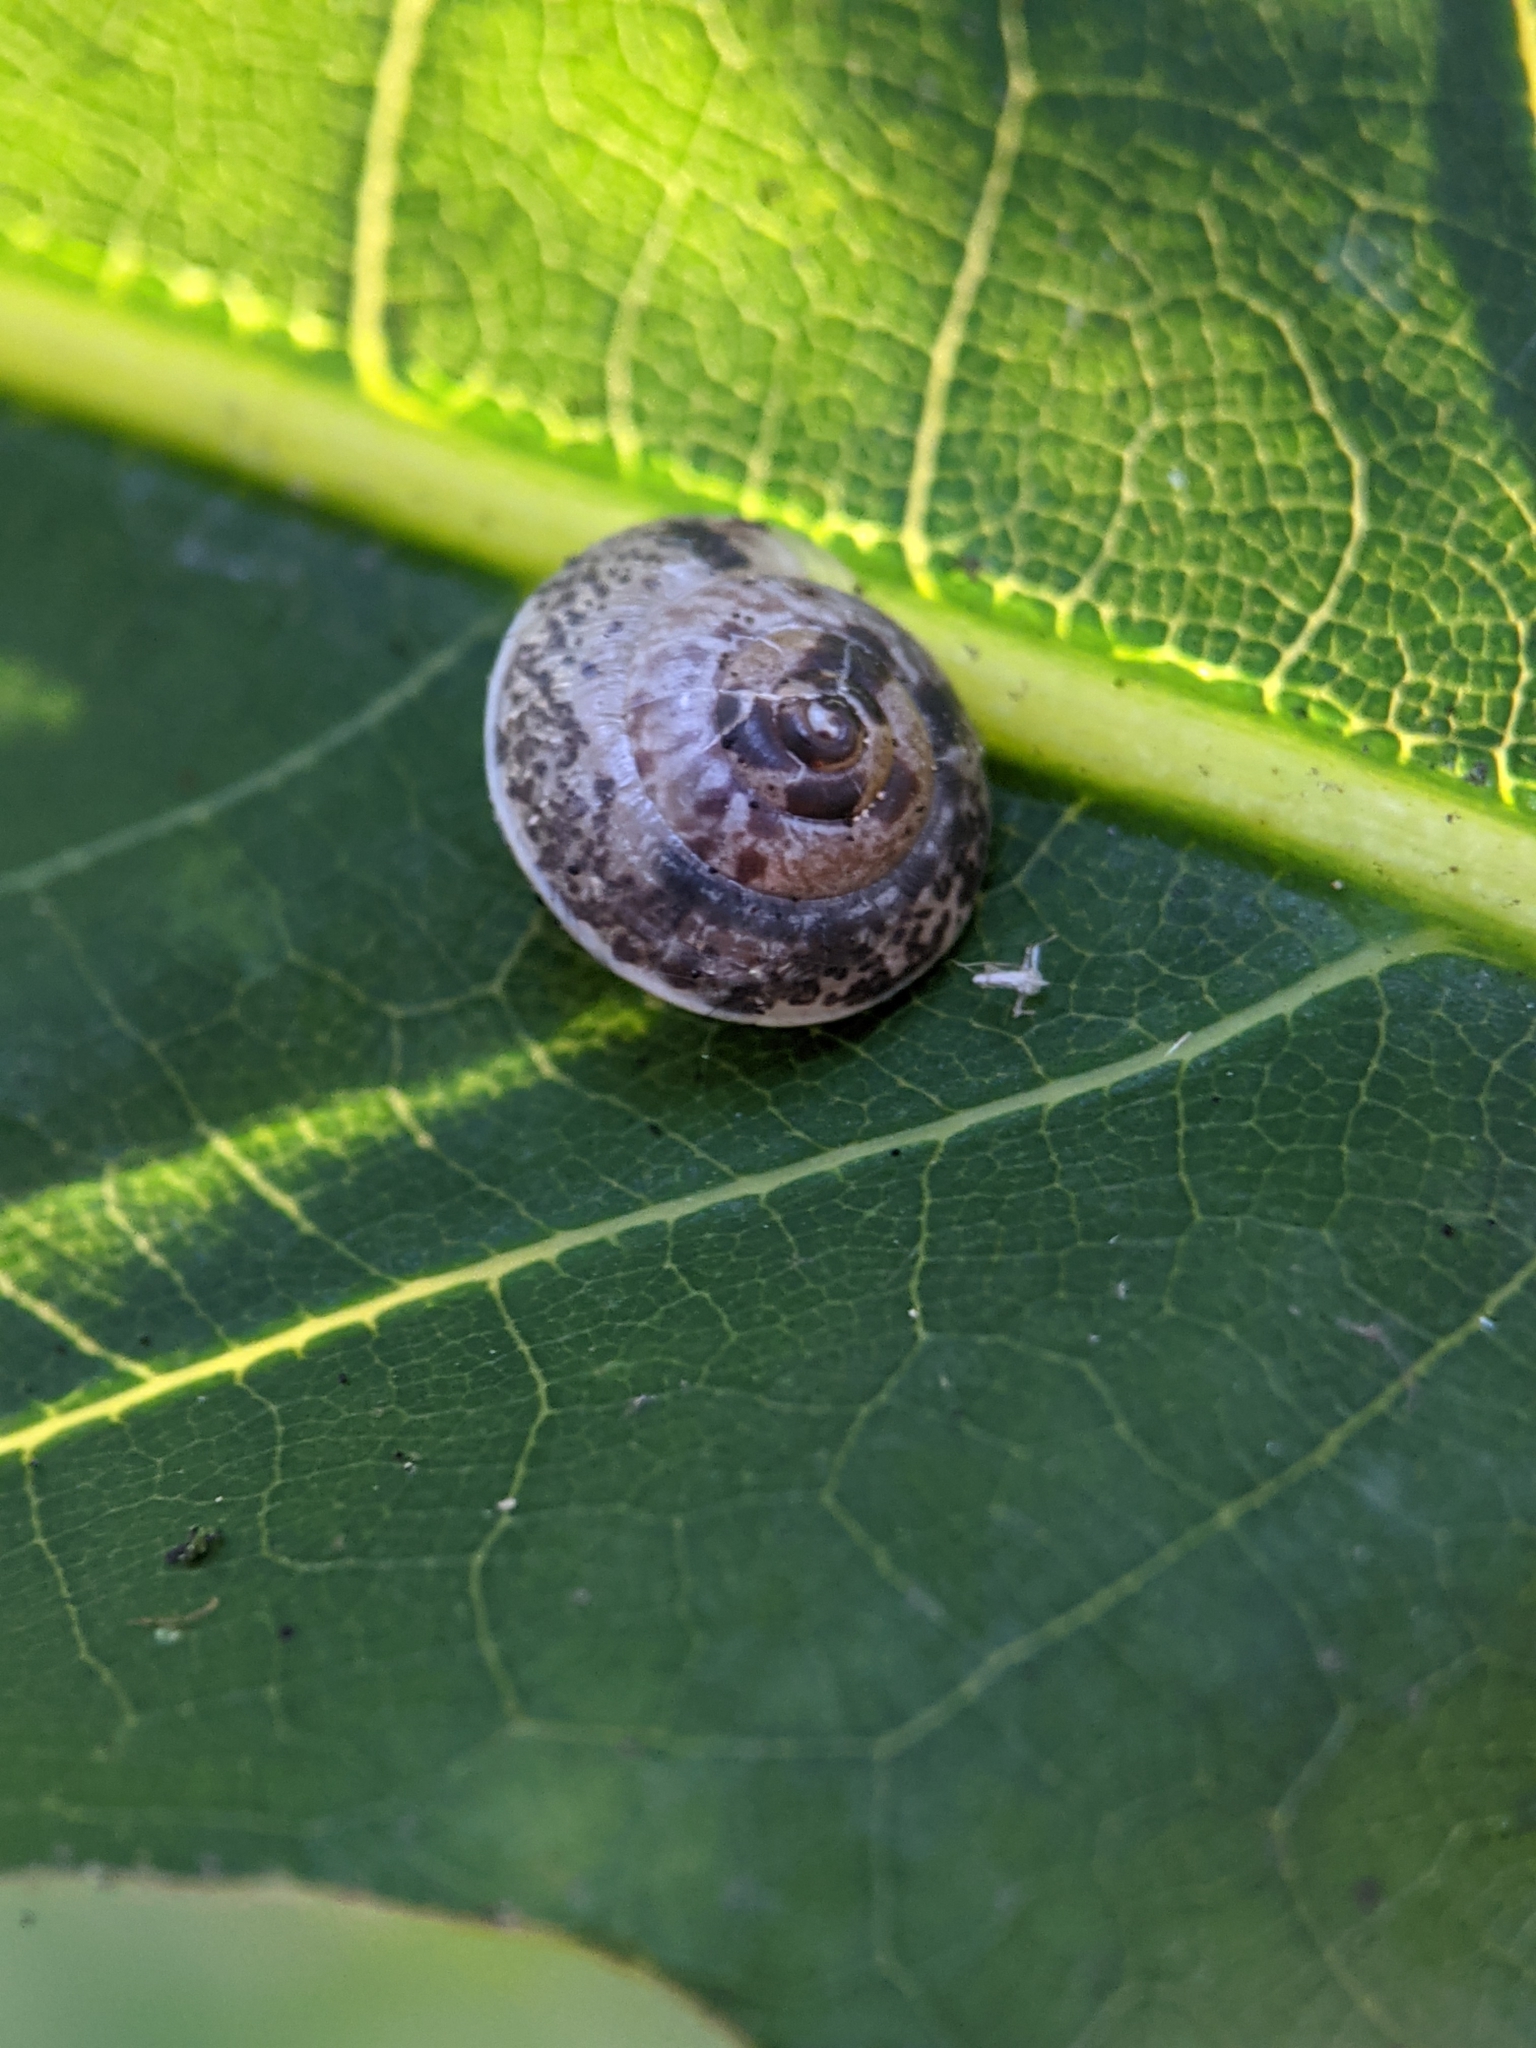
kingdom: Animalia
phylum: Mollusca
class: Gastropoda
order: Stylommatophora
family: Hygromiidae
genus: Hygromia
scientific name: Hygromia cinctella
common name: Girdled snail
